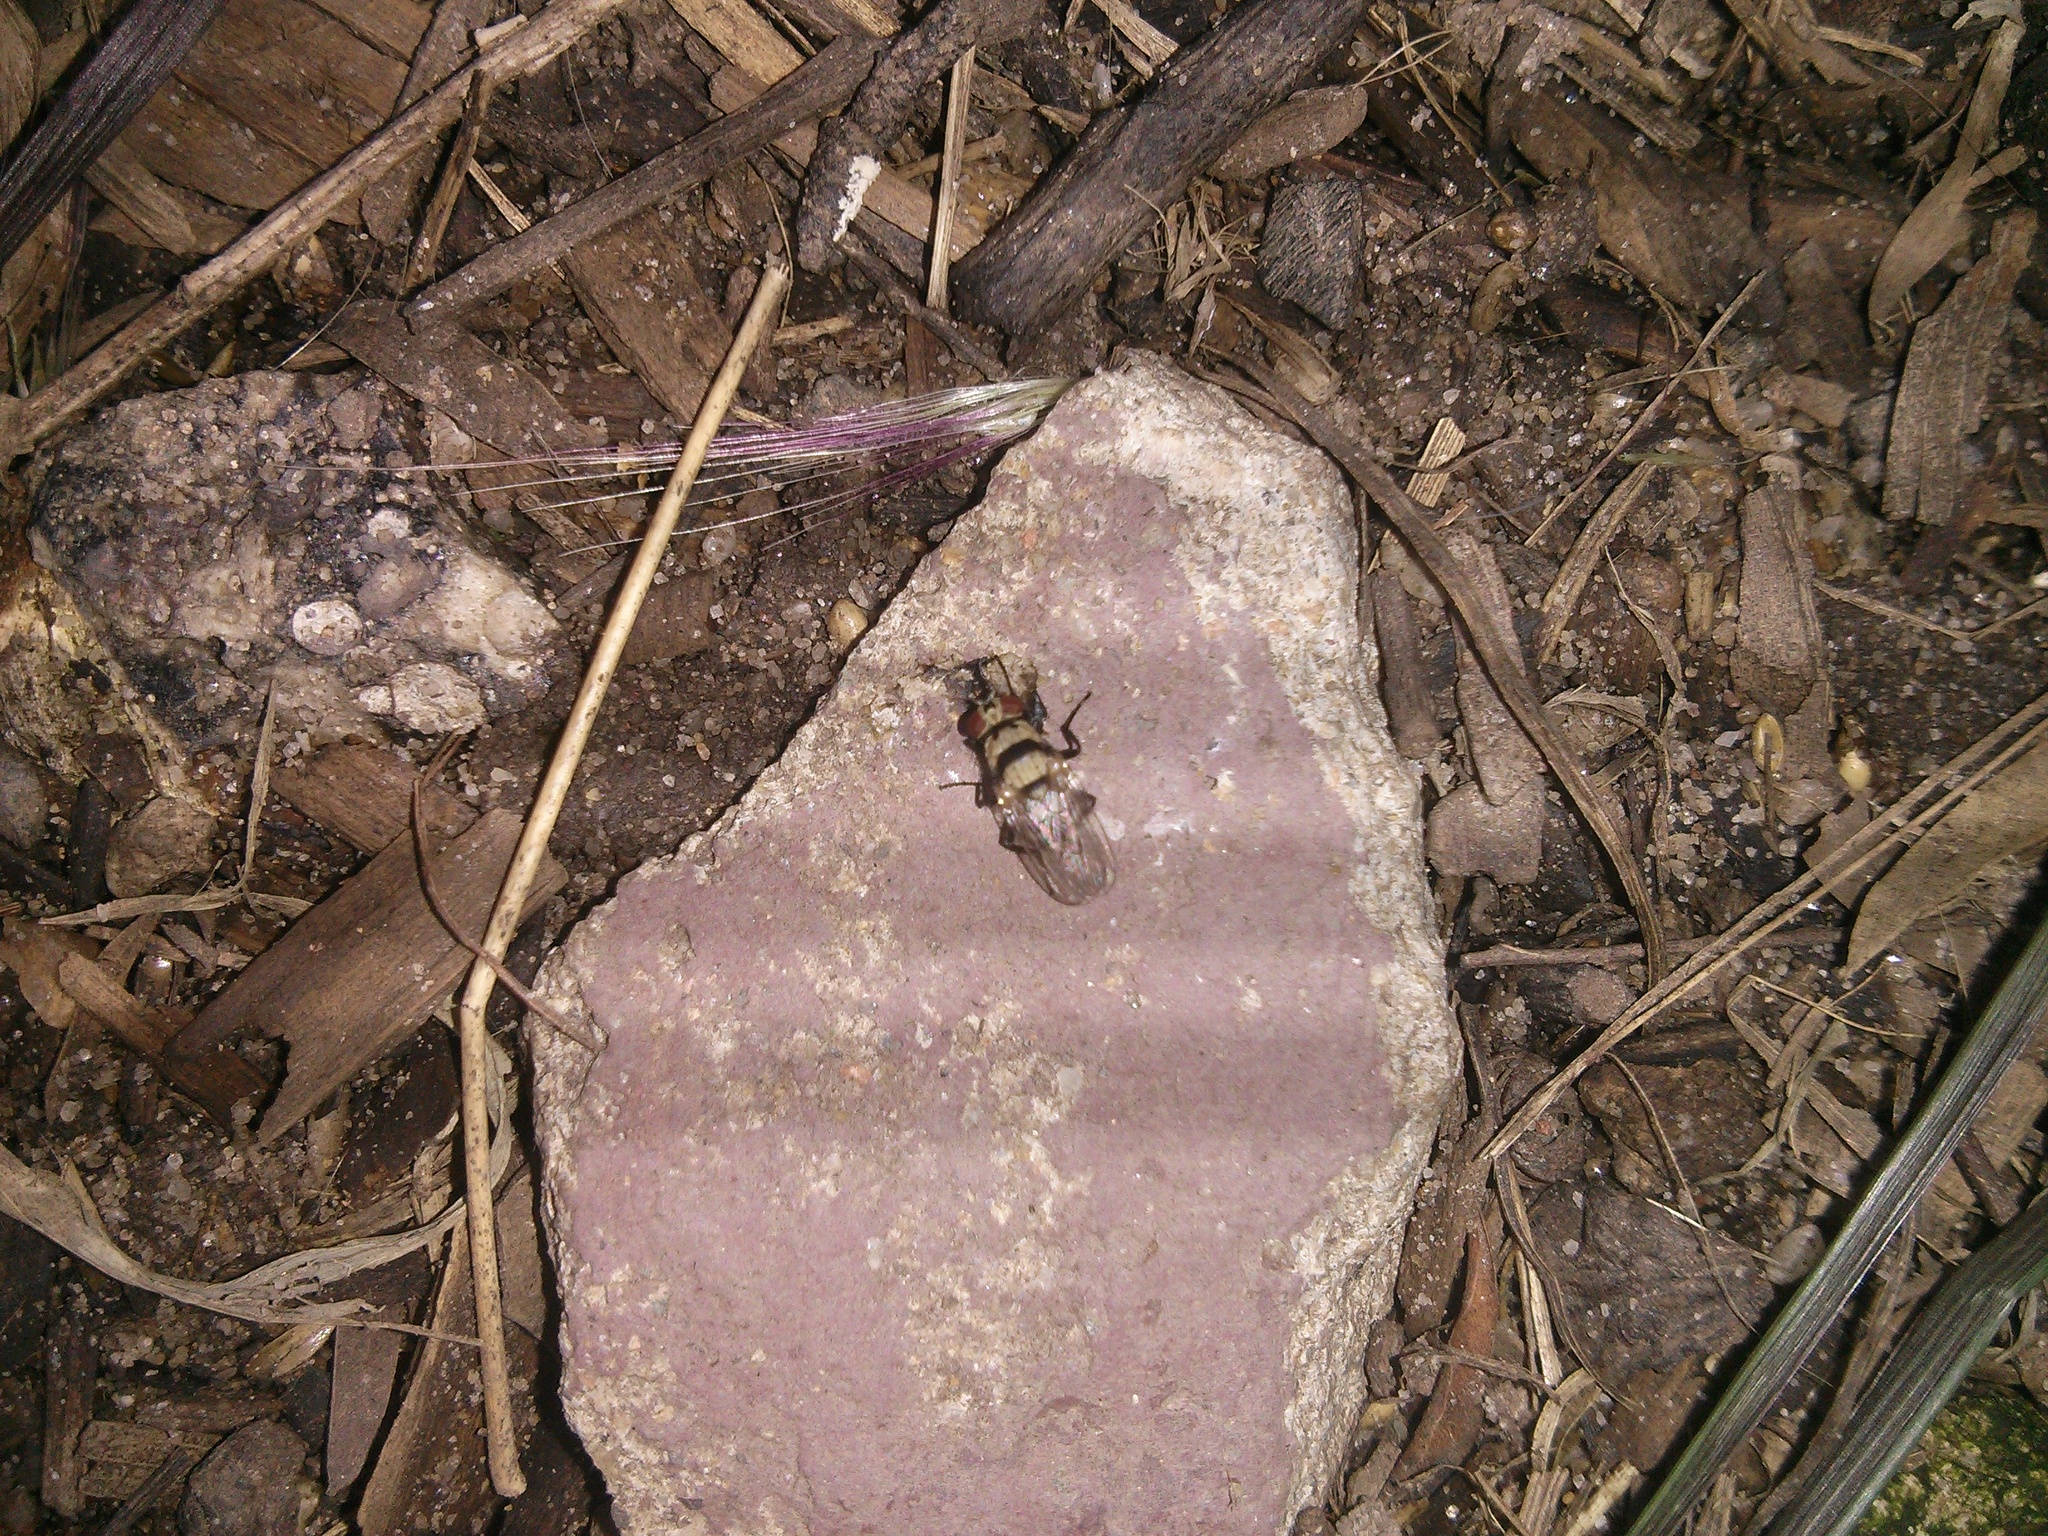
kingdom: Animalia
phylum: Arthropoda
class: Insecta
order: Diptera
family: Anthomyiidae
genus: Anthomyia
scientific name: Anthomyia vicarians
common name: Fly
